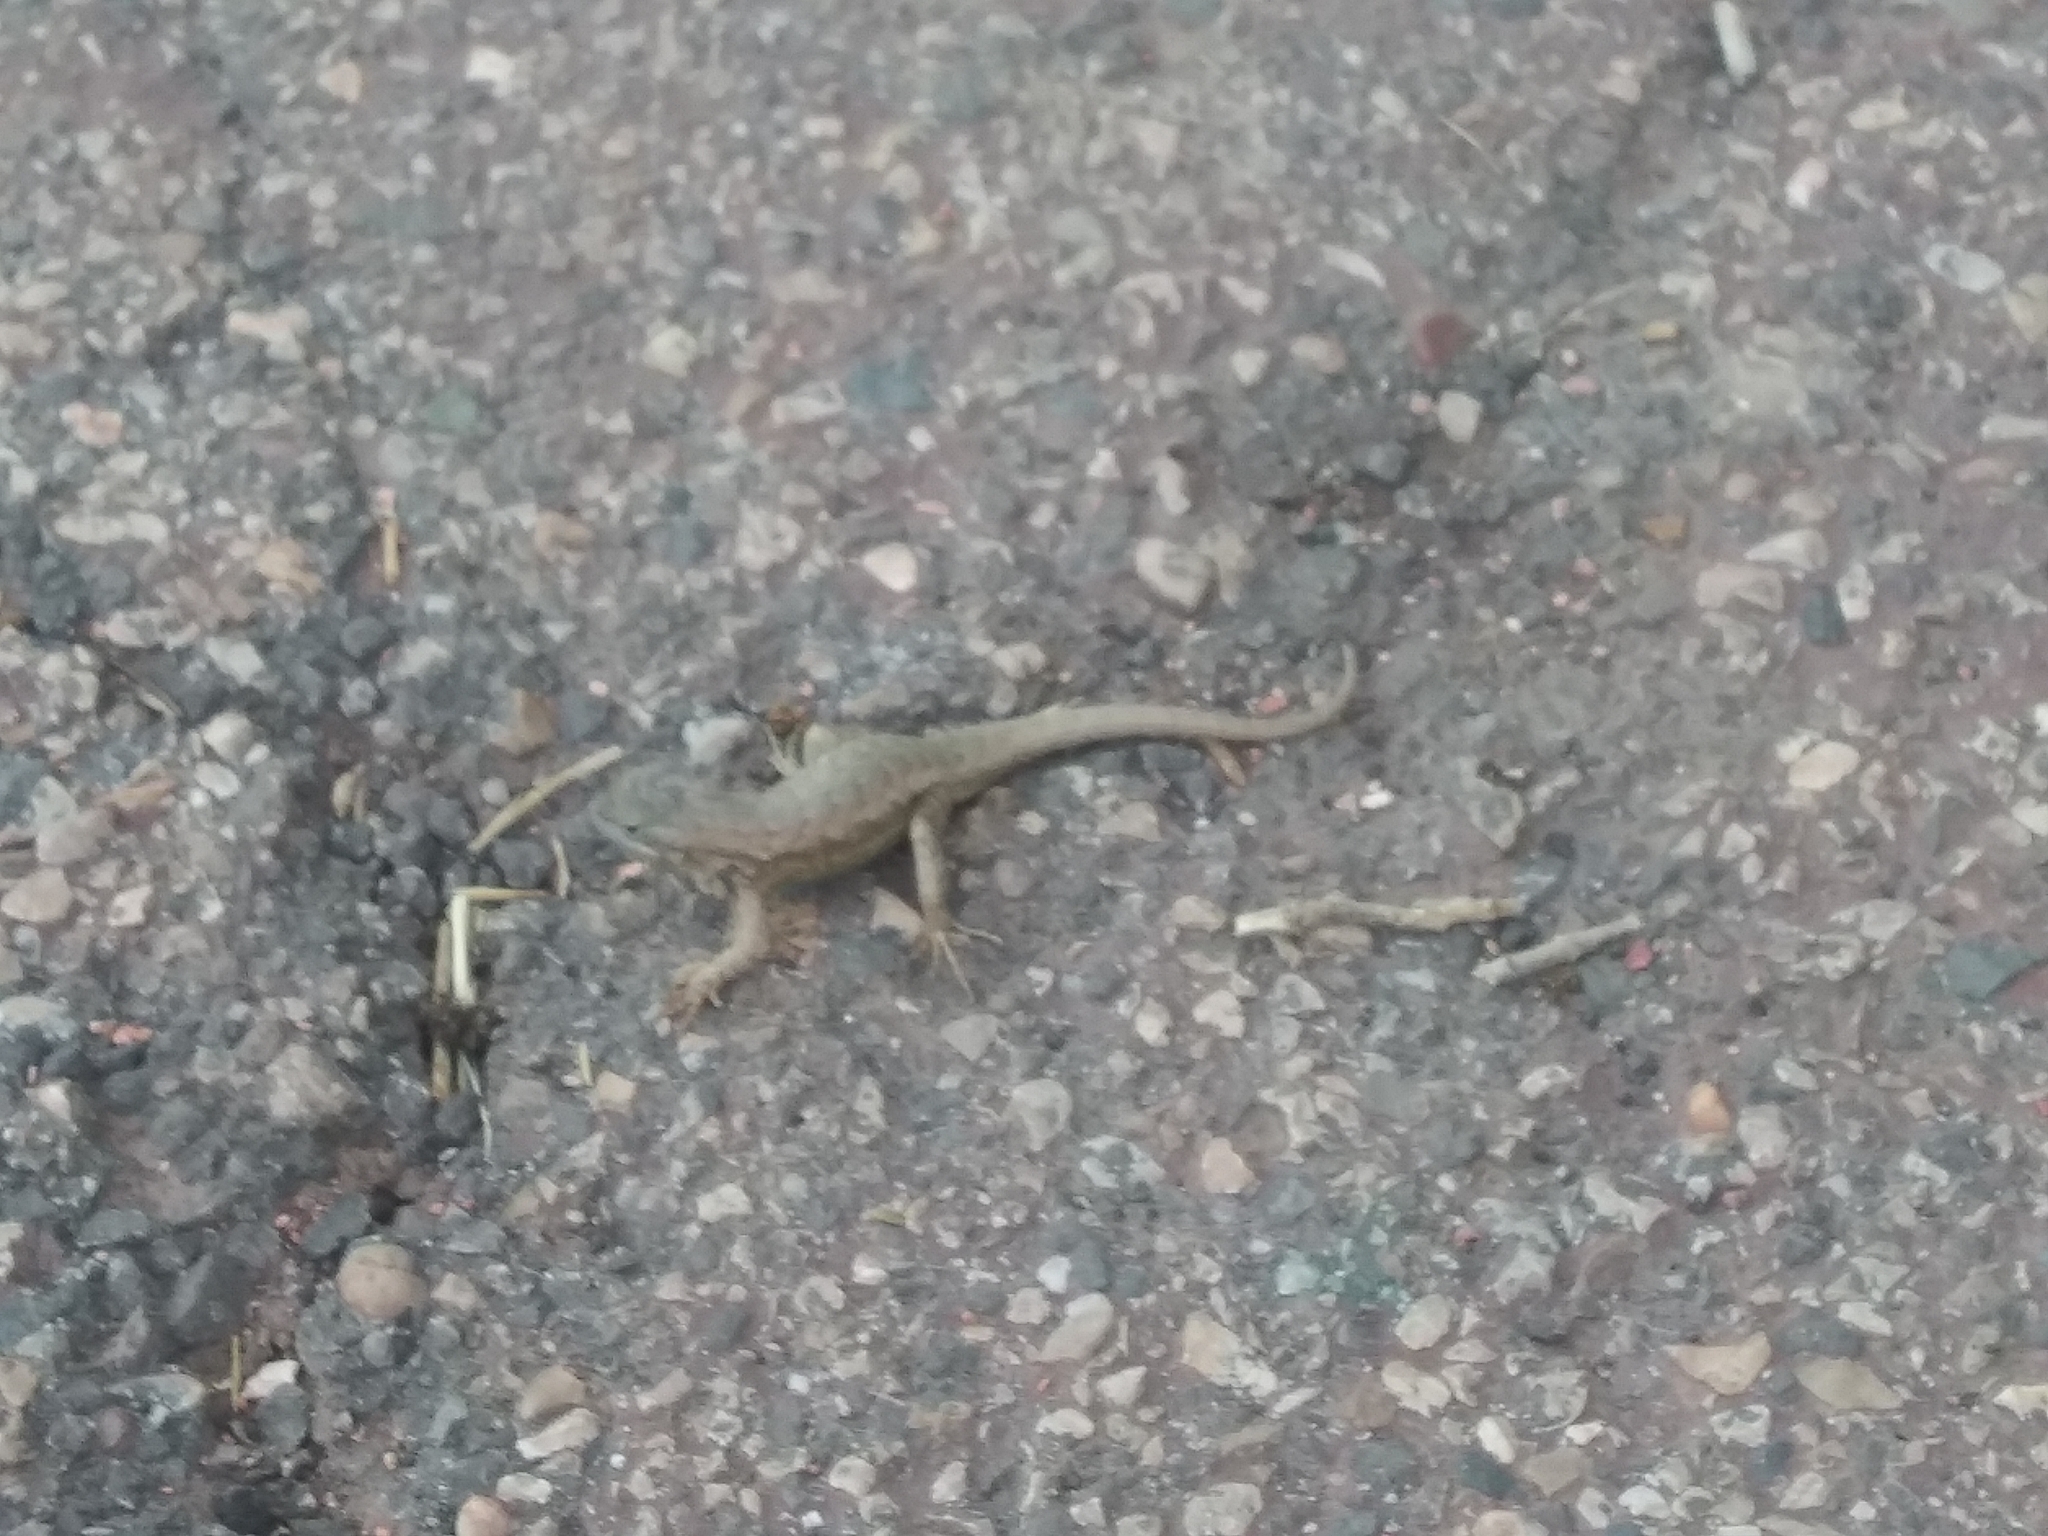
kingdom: Animalia
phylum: Chordata
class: Squamata
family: Phrynosomatidae
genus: Sceloporus
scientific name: Sceloporus tristichus
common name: Plateau fence lizard
